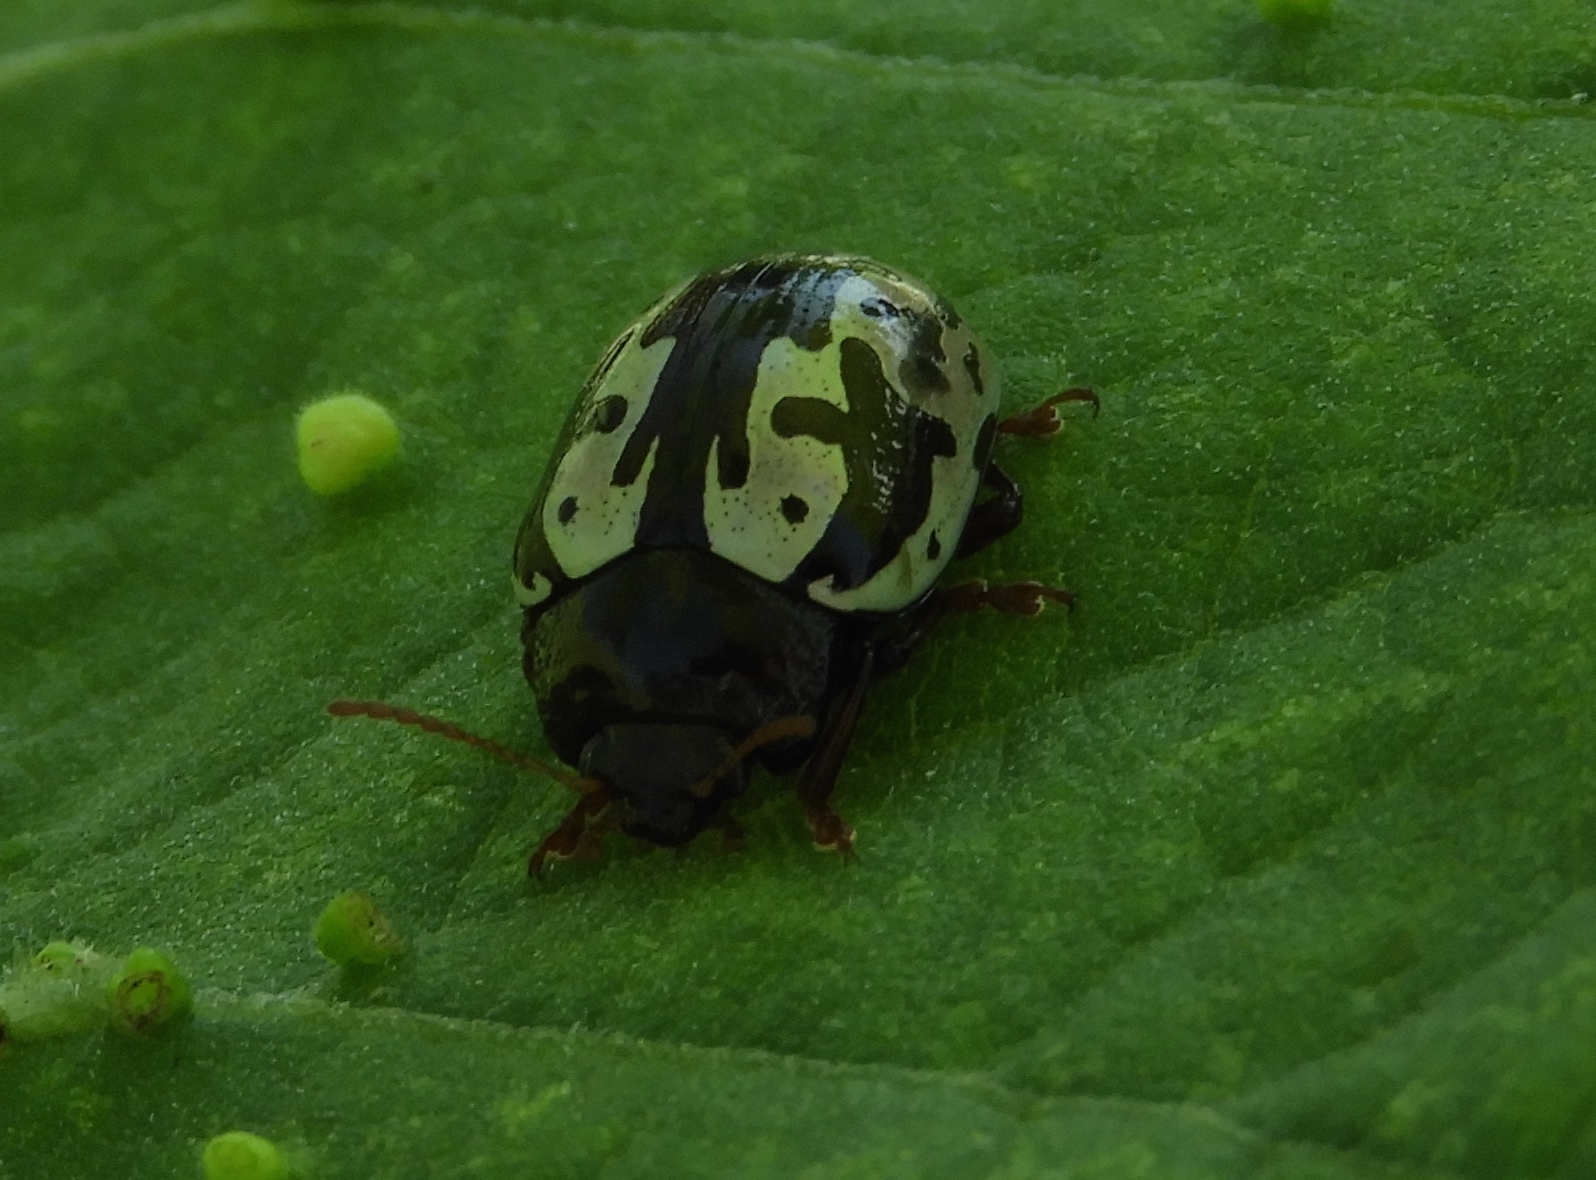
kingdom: Animalia
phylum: Arthropoda
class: Insecta
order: Coleoptera
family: Chrysomelidae
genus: Calligrapha
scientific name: Calligrapha intermedia
